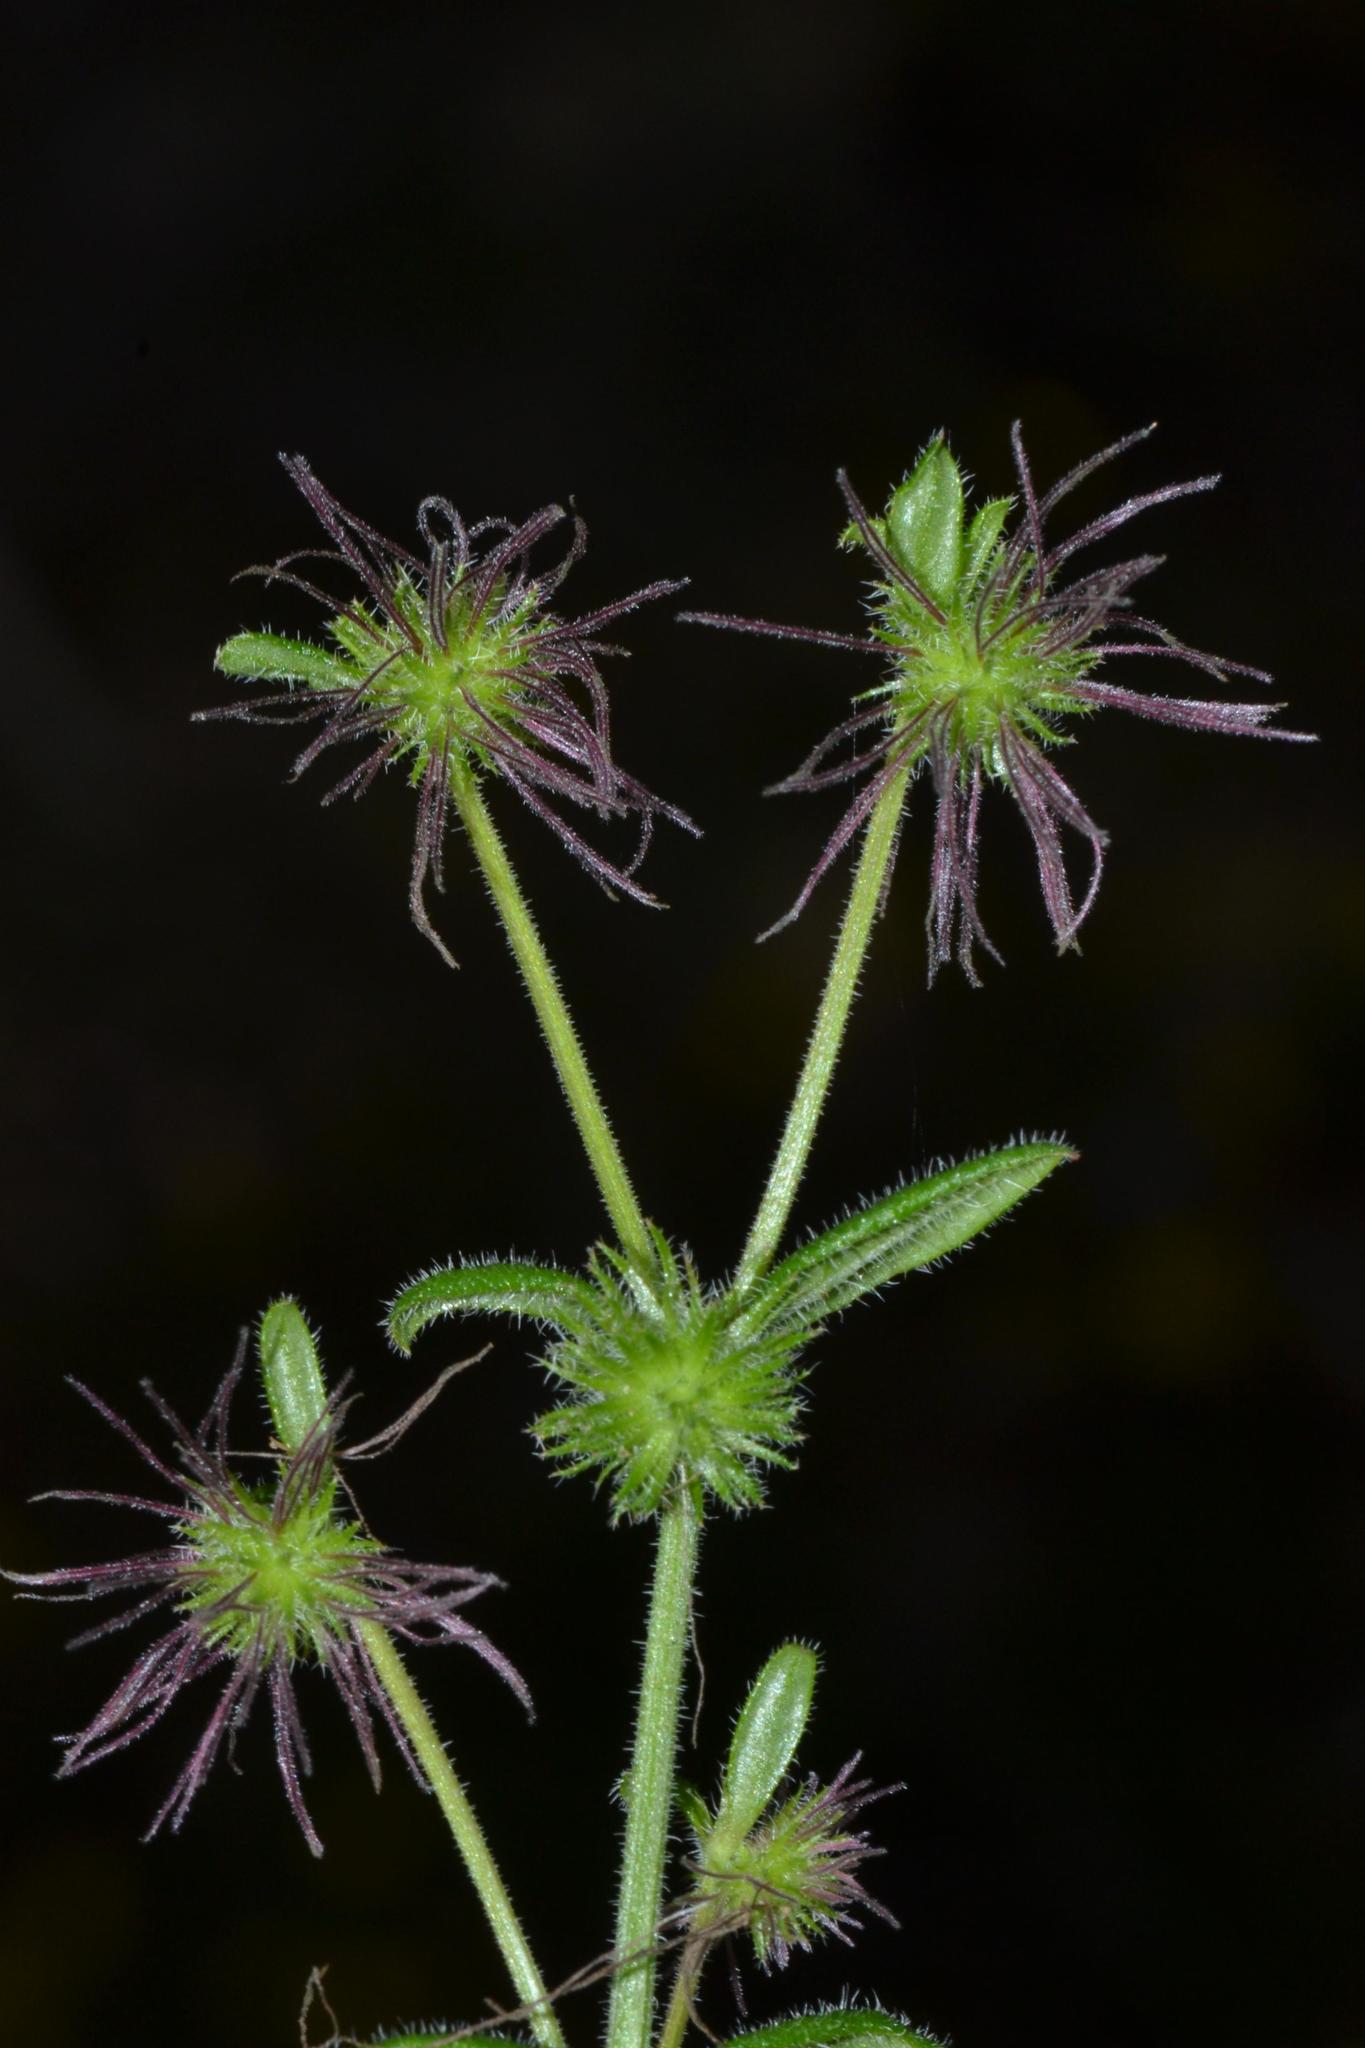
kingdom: Plantae
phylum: Tracheophyta
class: Magnoliopsida
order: Gentianales
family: Rubiaceae
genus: Opercularia
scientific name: Opercularia echinocephala
